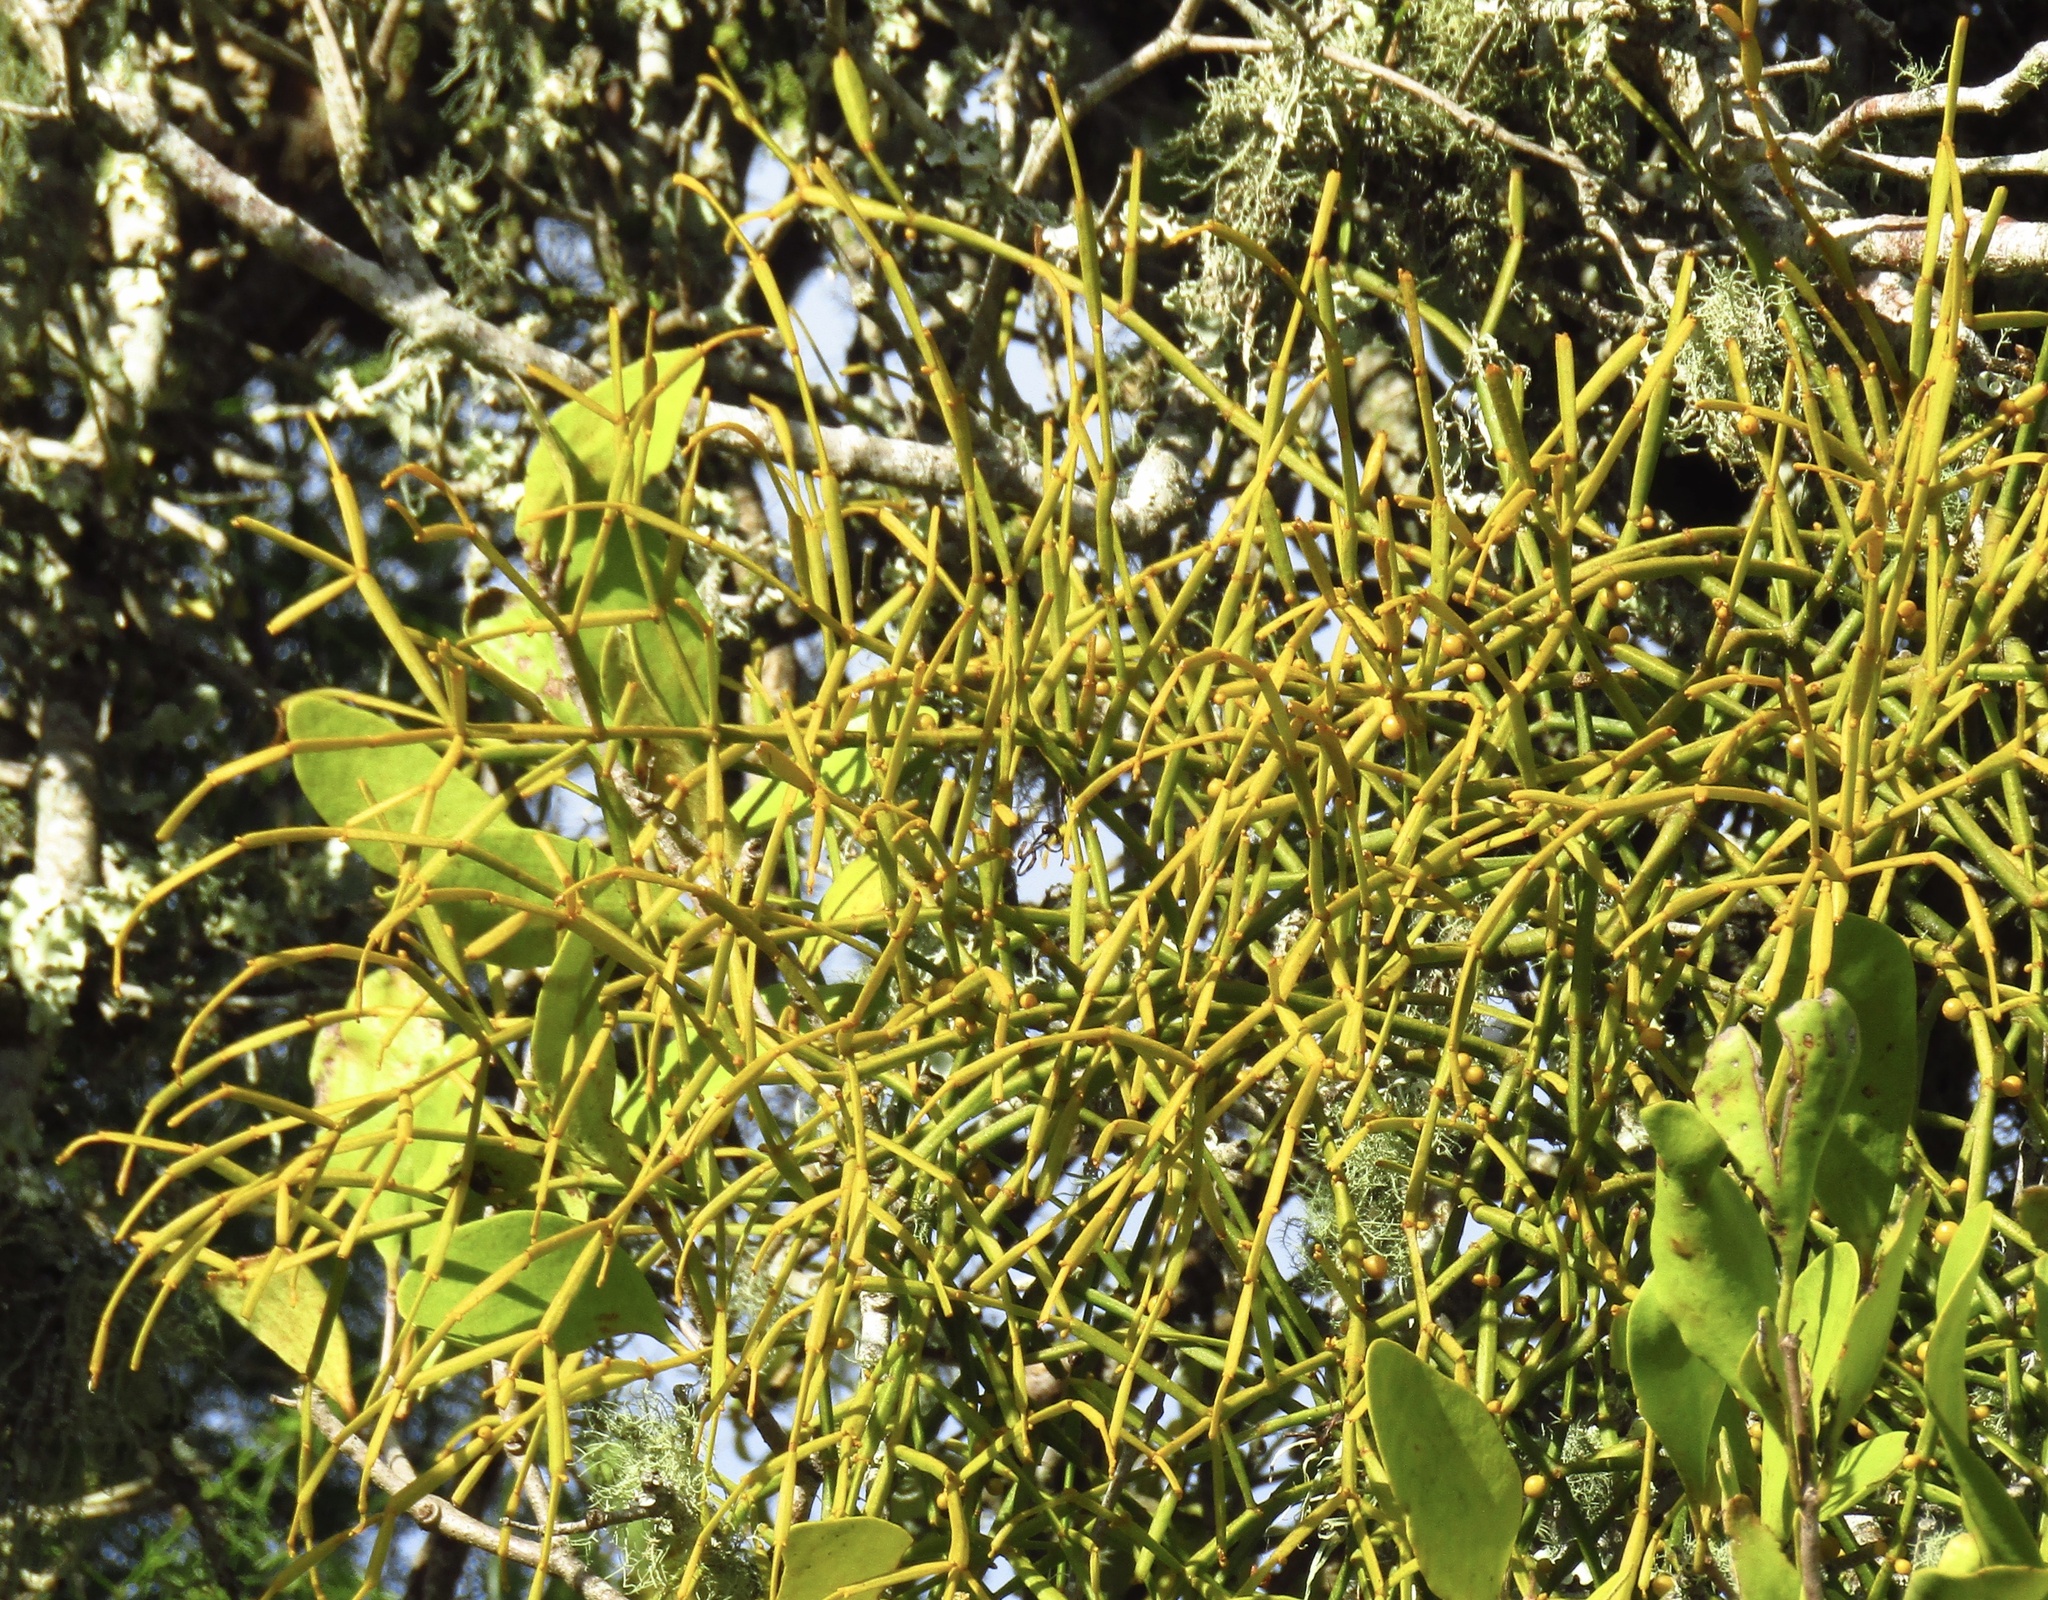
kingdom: Plantae
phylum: Tracheophyta
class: Magnoliopsida
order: Santalales
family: Viscaceae
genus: Viscum
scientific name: Viscum articulatum
